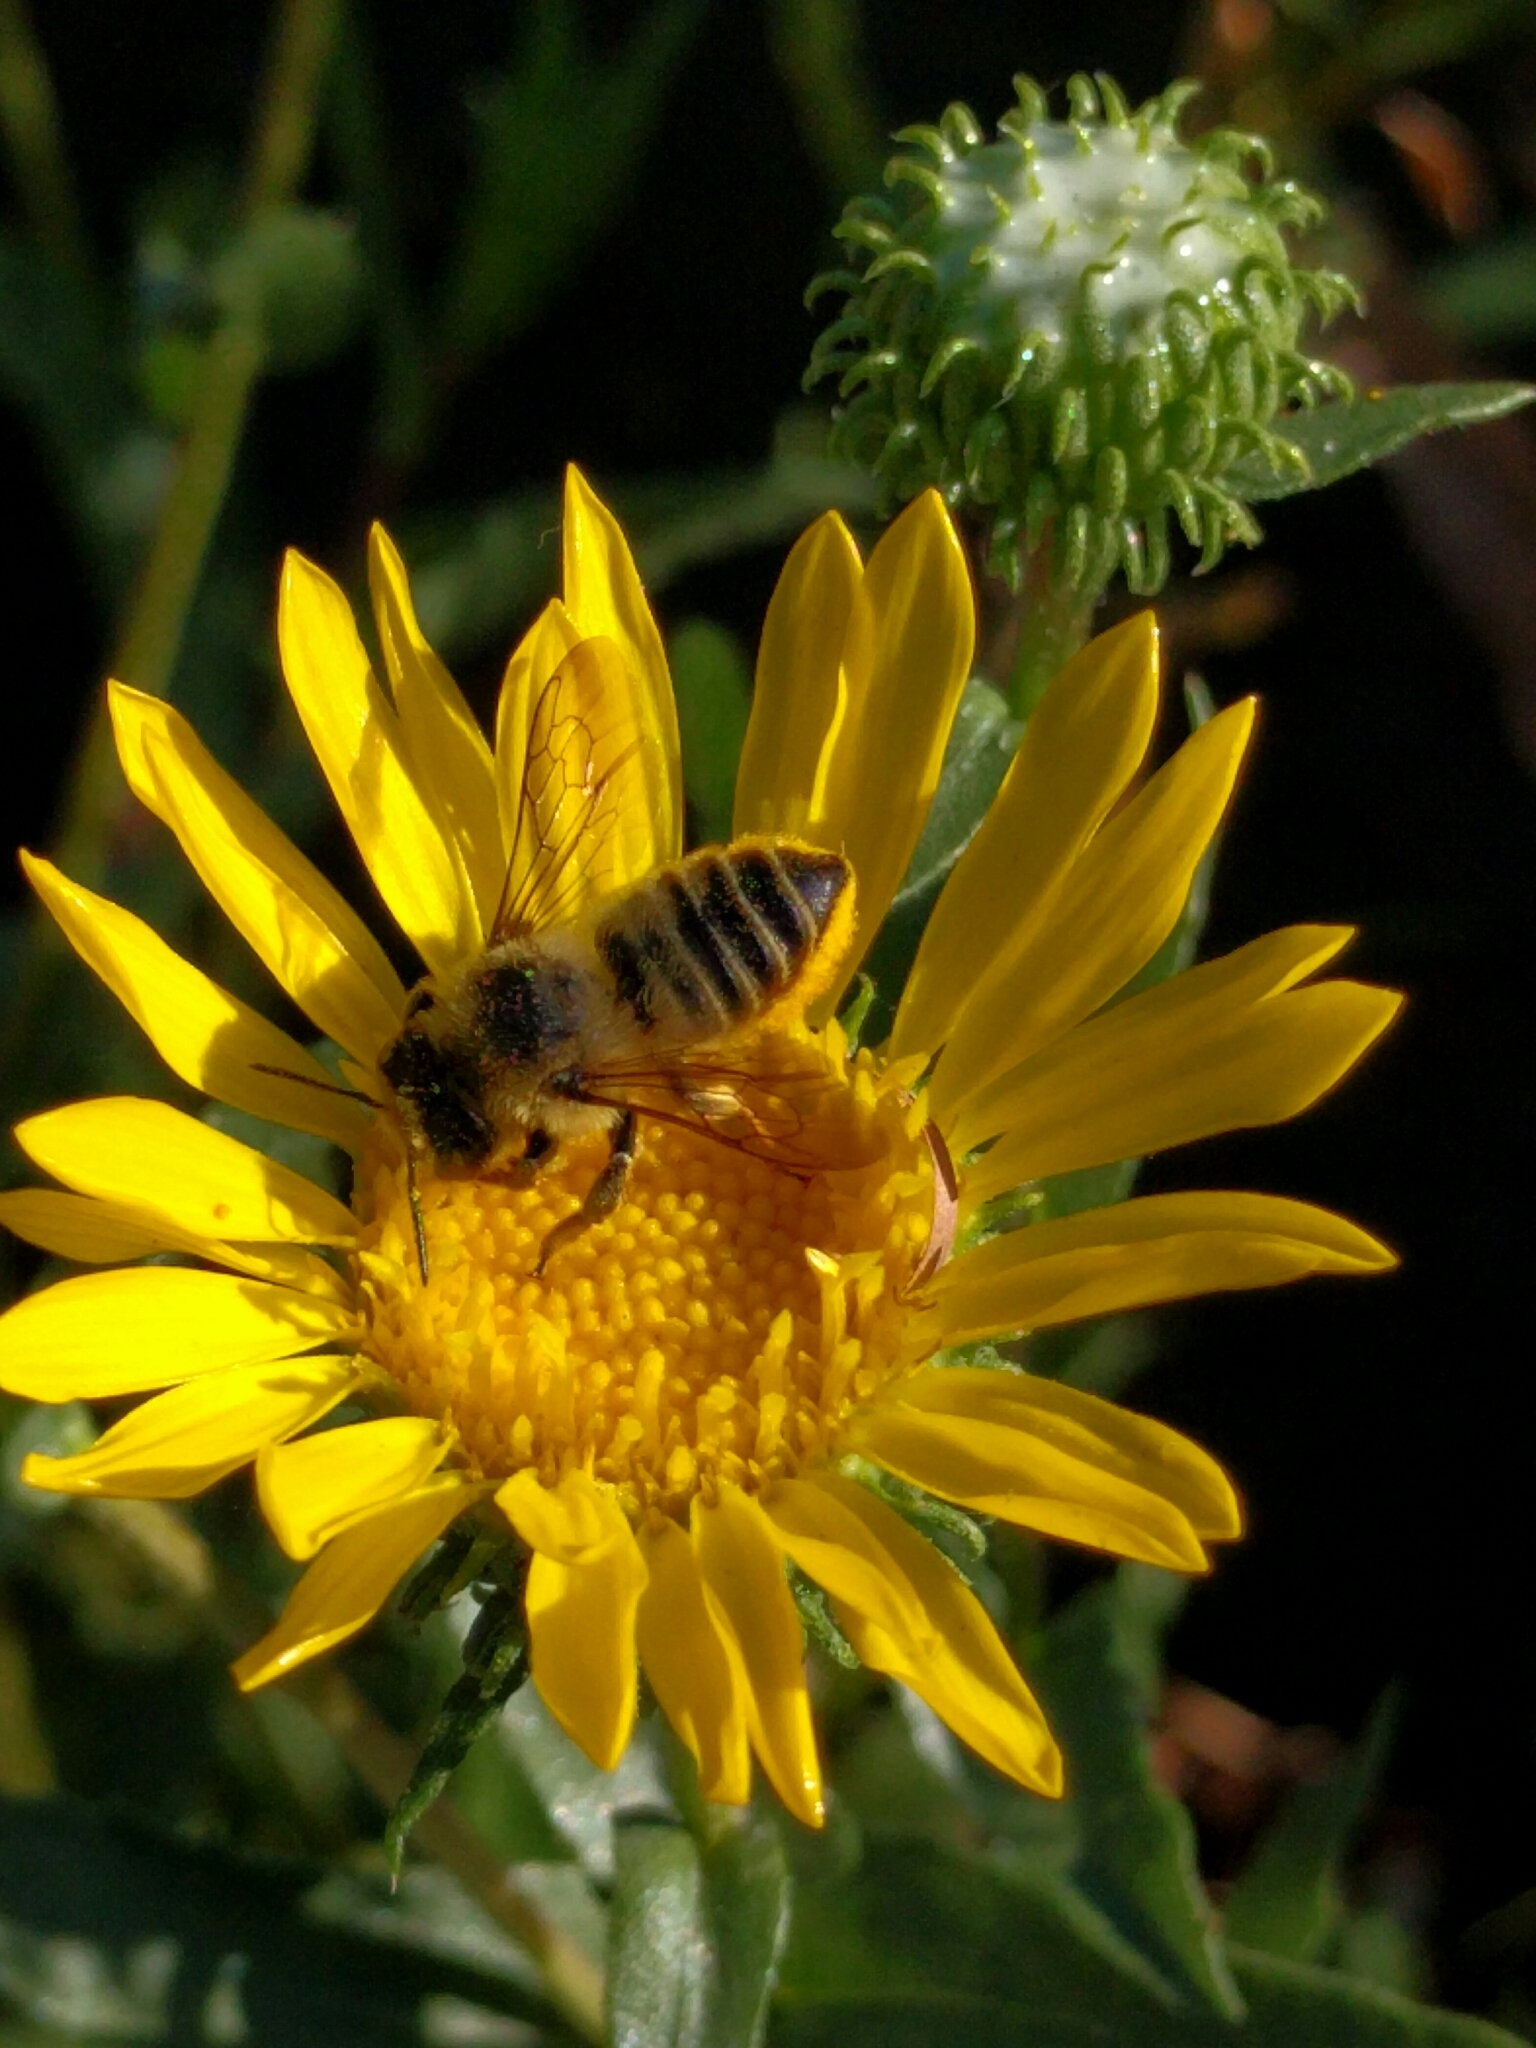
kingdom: Animalia
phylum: Arthropoda
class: Insecta
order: Hymenoptera
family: Megachilidae
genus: Megachile
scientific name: Megachile perihirta
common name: Western leafcutter
